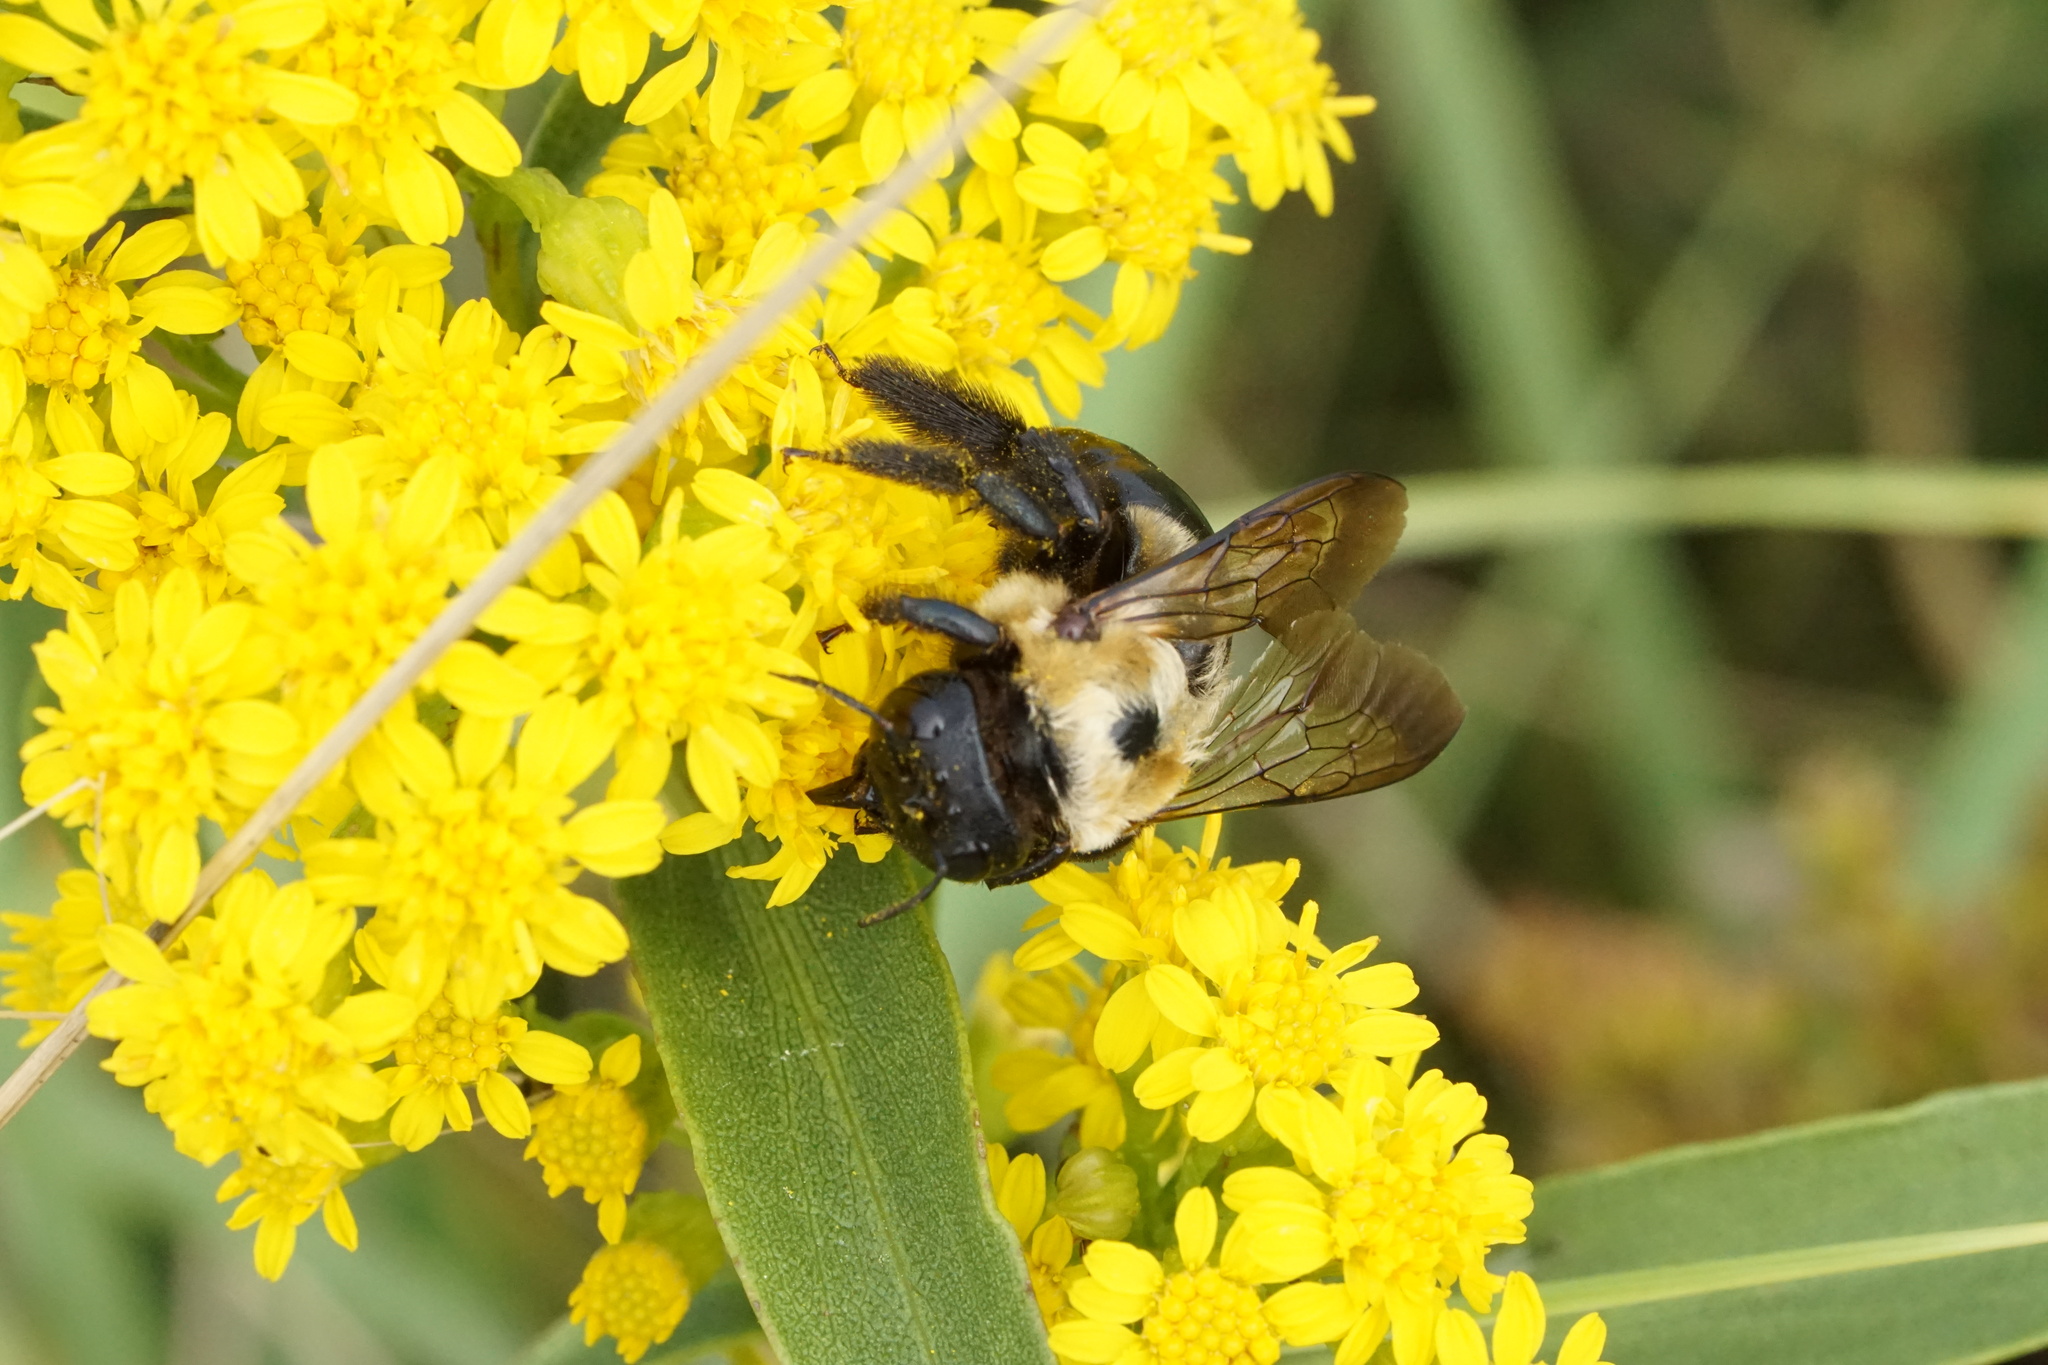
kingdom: Animalia
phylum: Arthropoda
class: Insecta
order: Hymenoptera
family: Apidae
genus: Xylocopa
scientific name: Xylocopa virginica
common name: Carpenter bee
